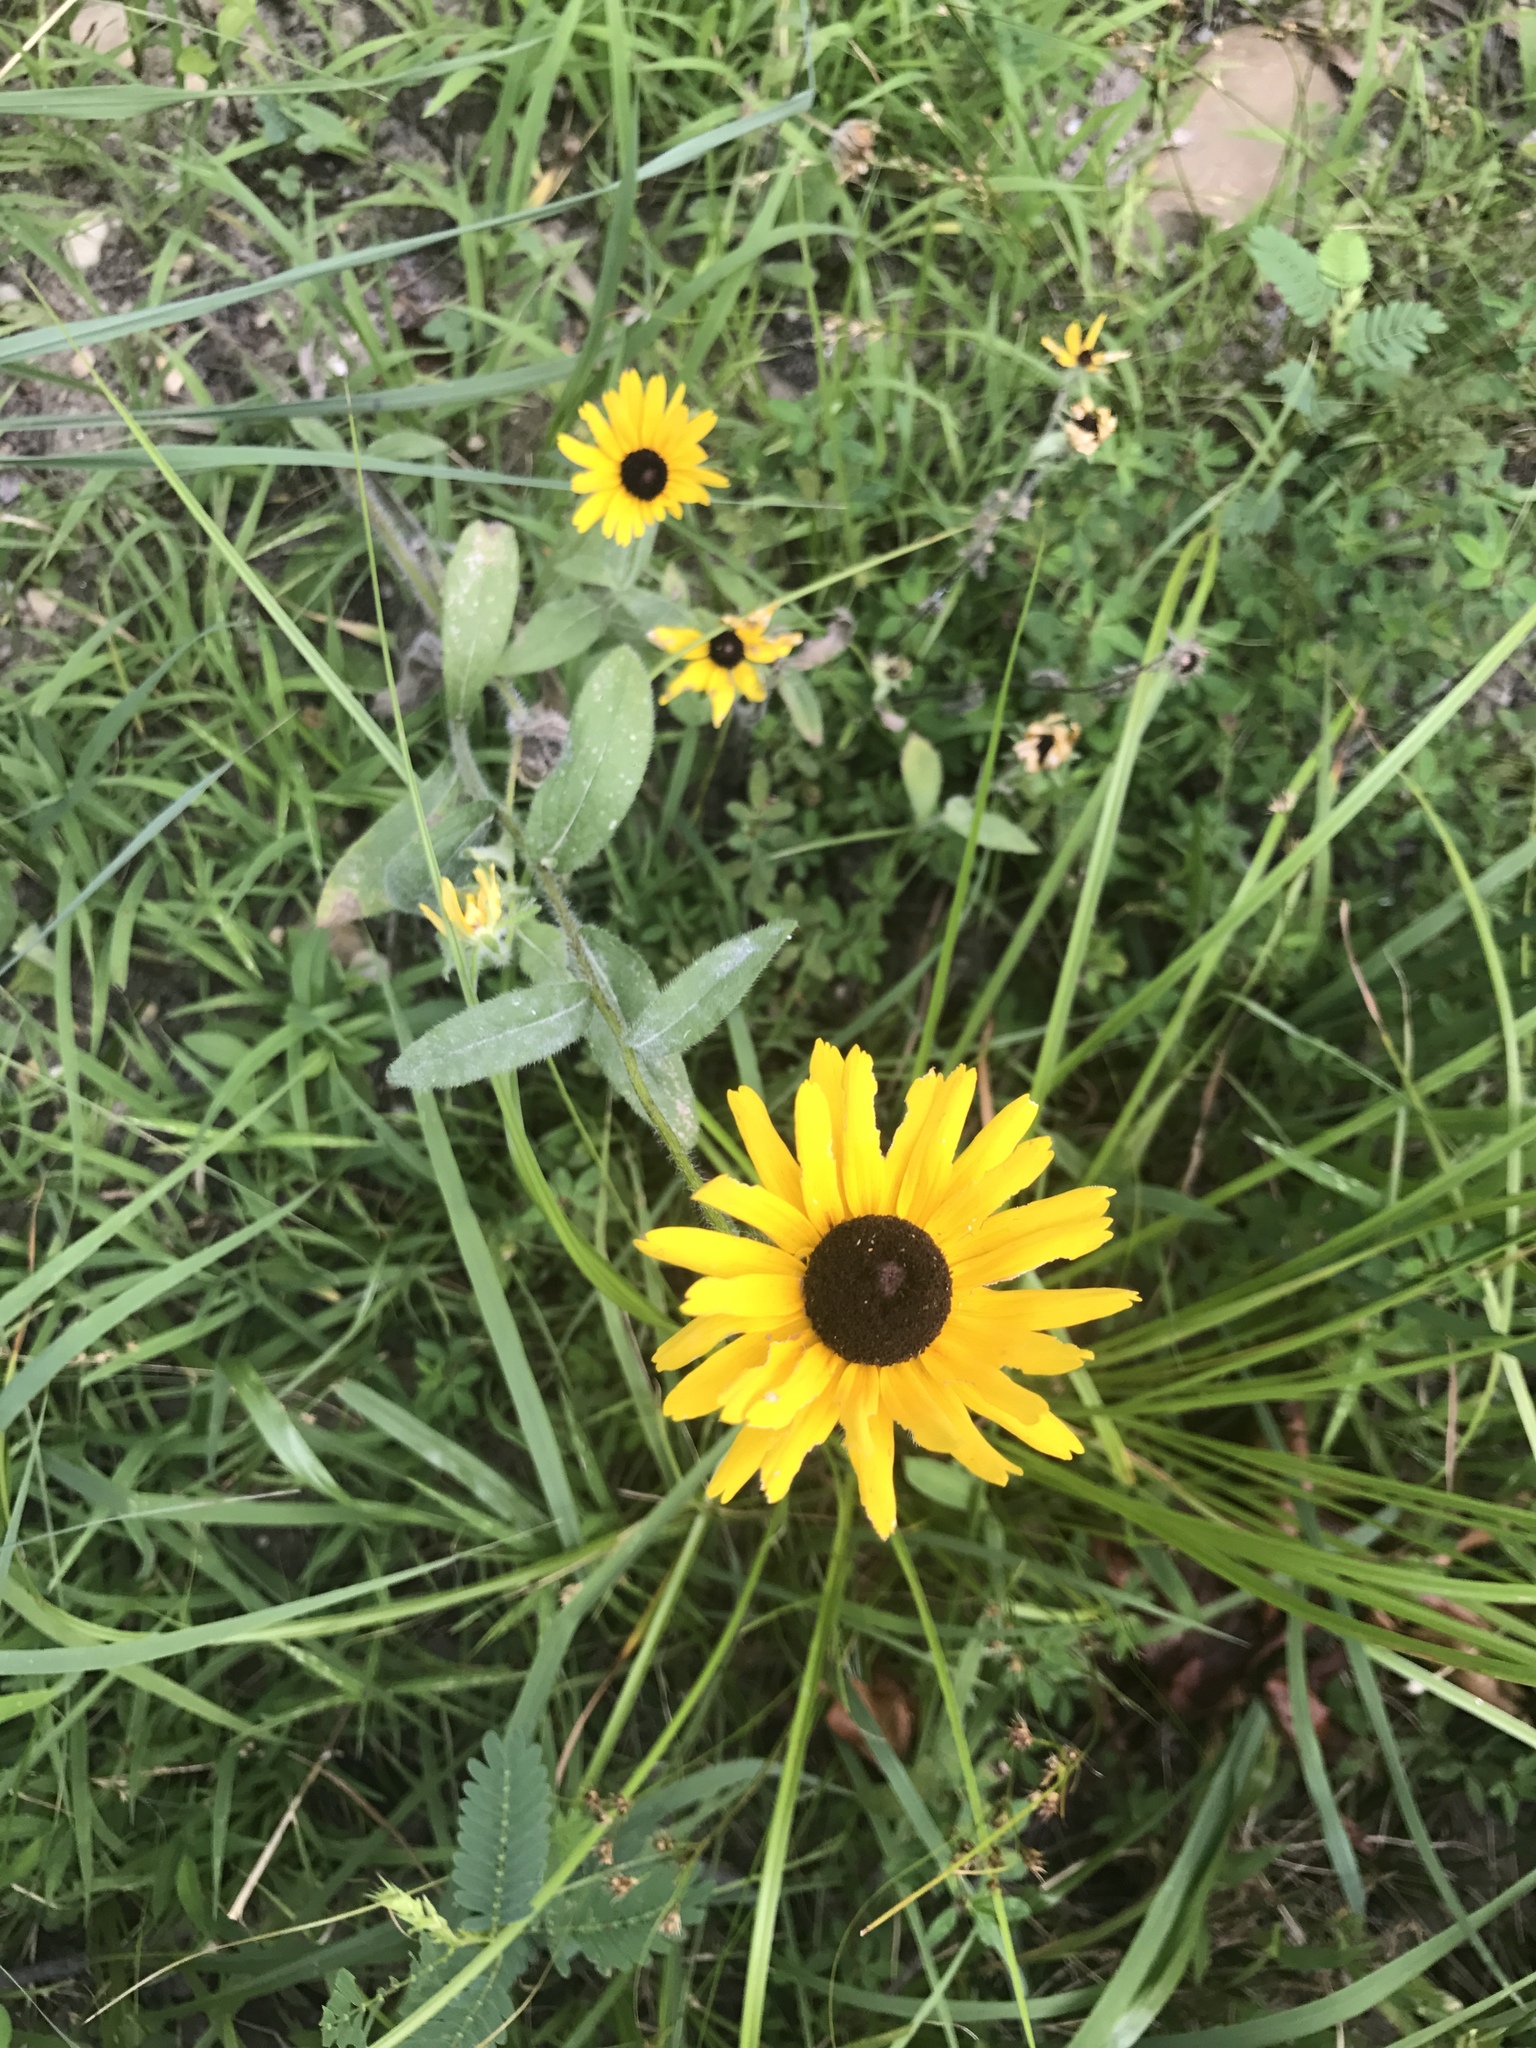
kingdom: Plantae
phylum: Tracheophyta
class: Magnoliopsida
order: Asterales
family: Asteraceae
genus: Rudbeckia
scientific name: Rudbeckia hirta
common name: Black-eyed-susan
